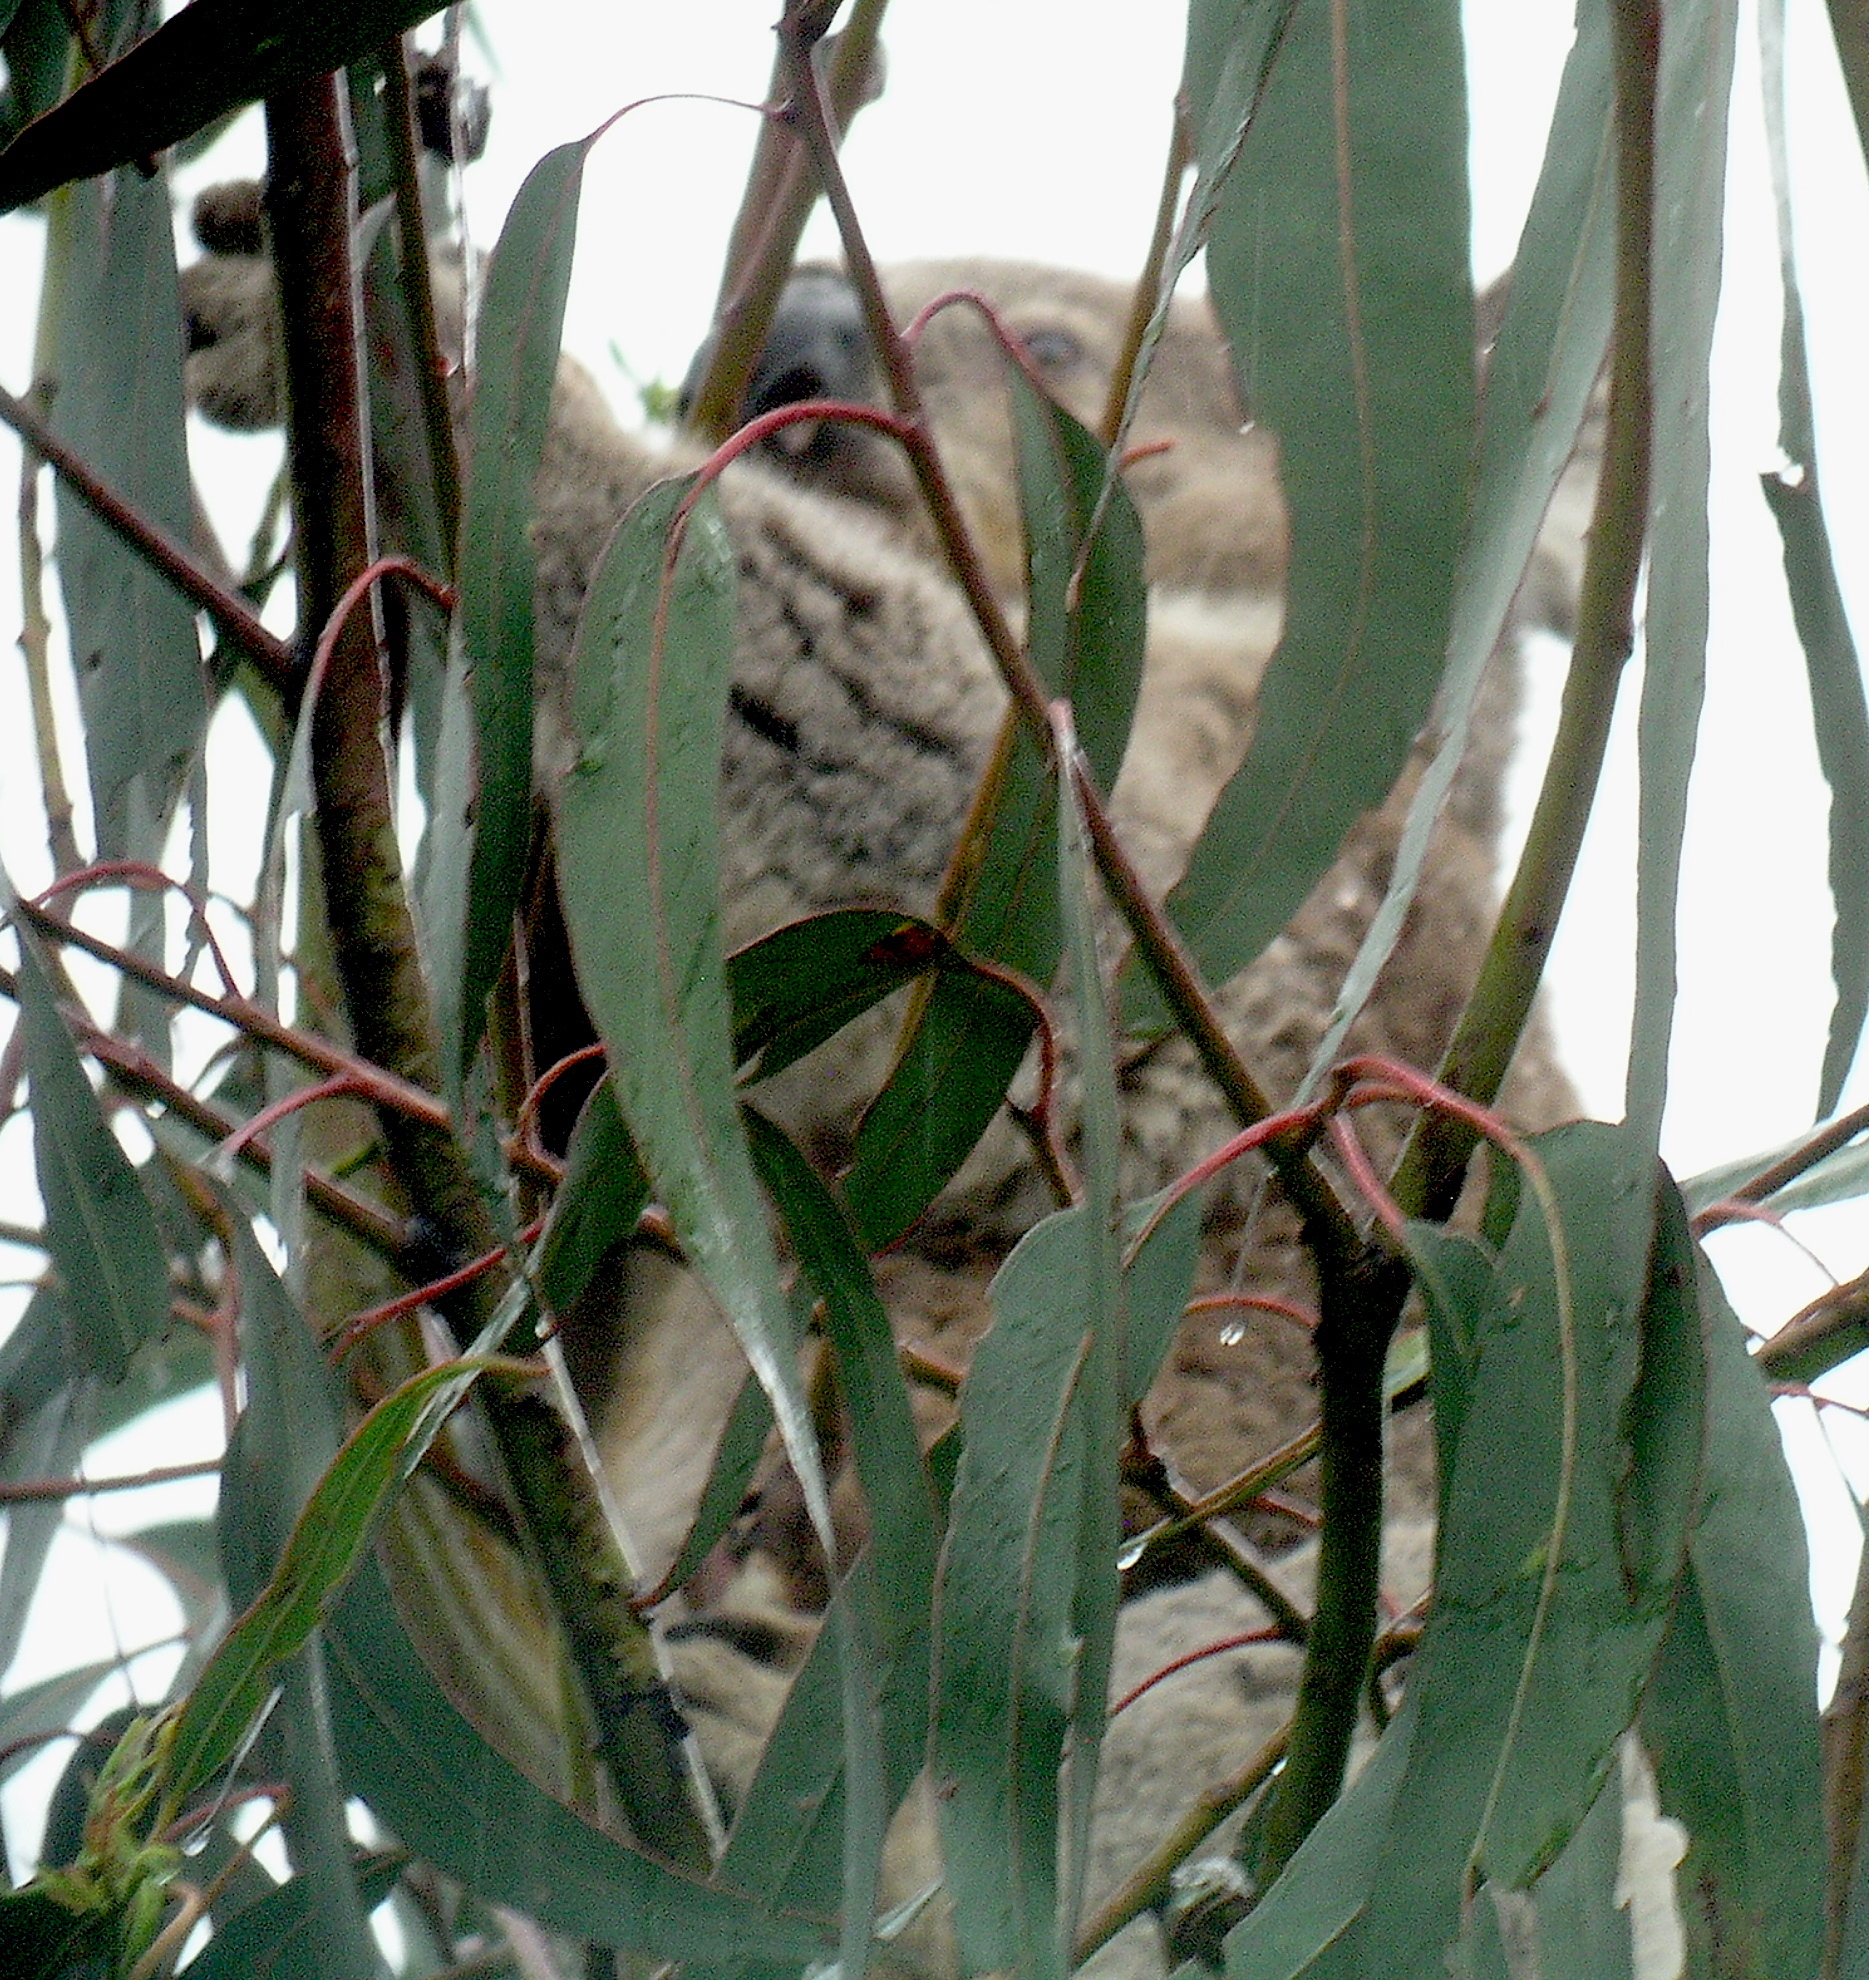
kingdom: Animalia
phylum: Chordata
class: Mammalia
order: Diprotodontia
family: Phascolarctidae
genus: Phascolarctos
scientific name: Phascolarctos cinereus
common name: Koala
